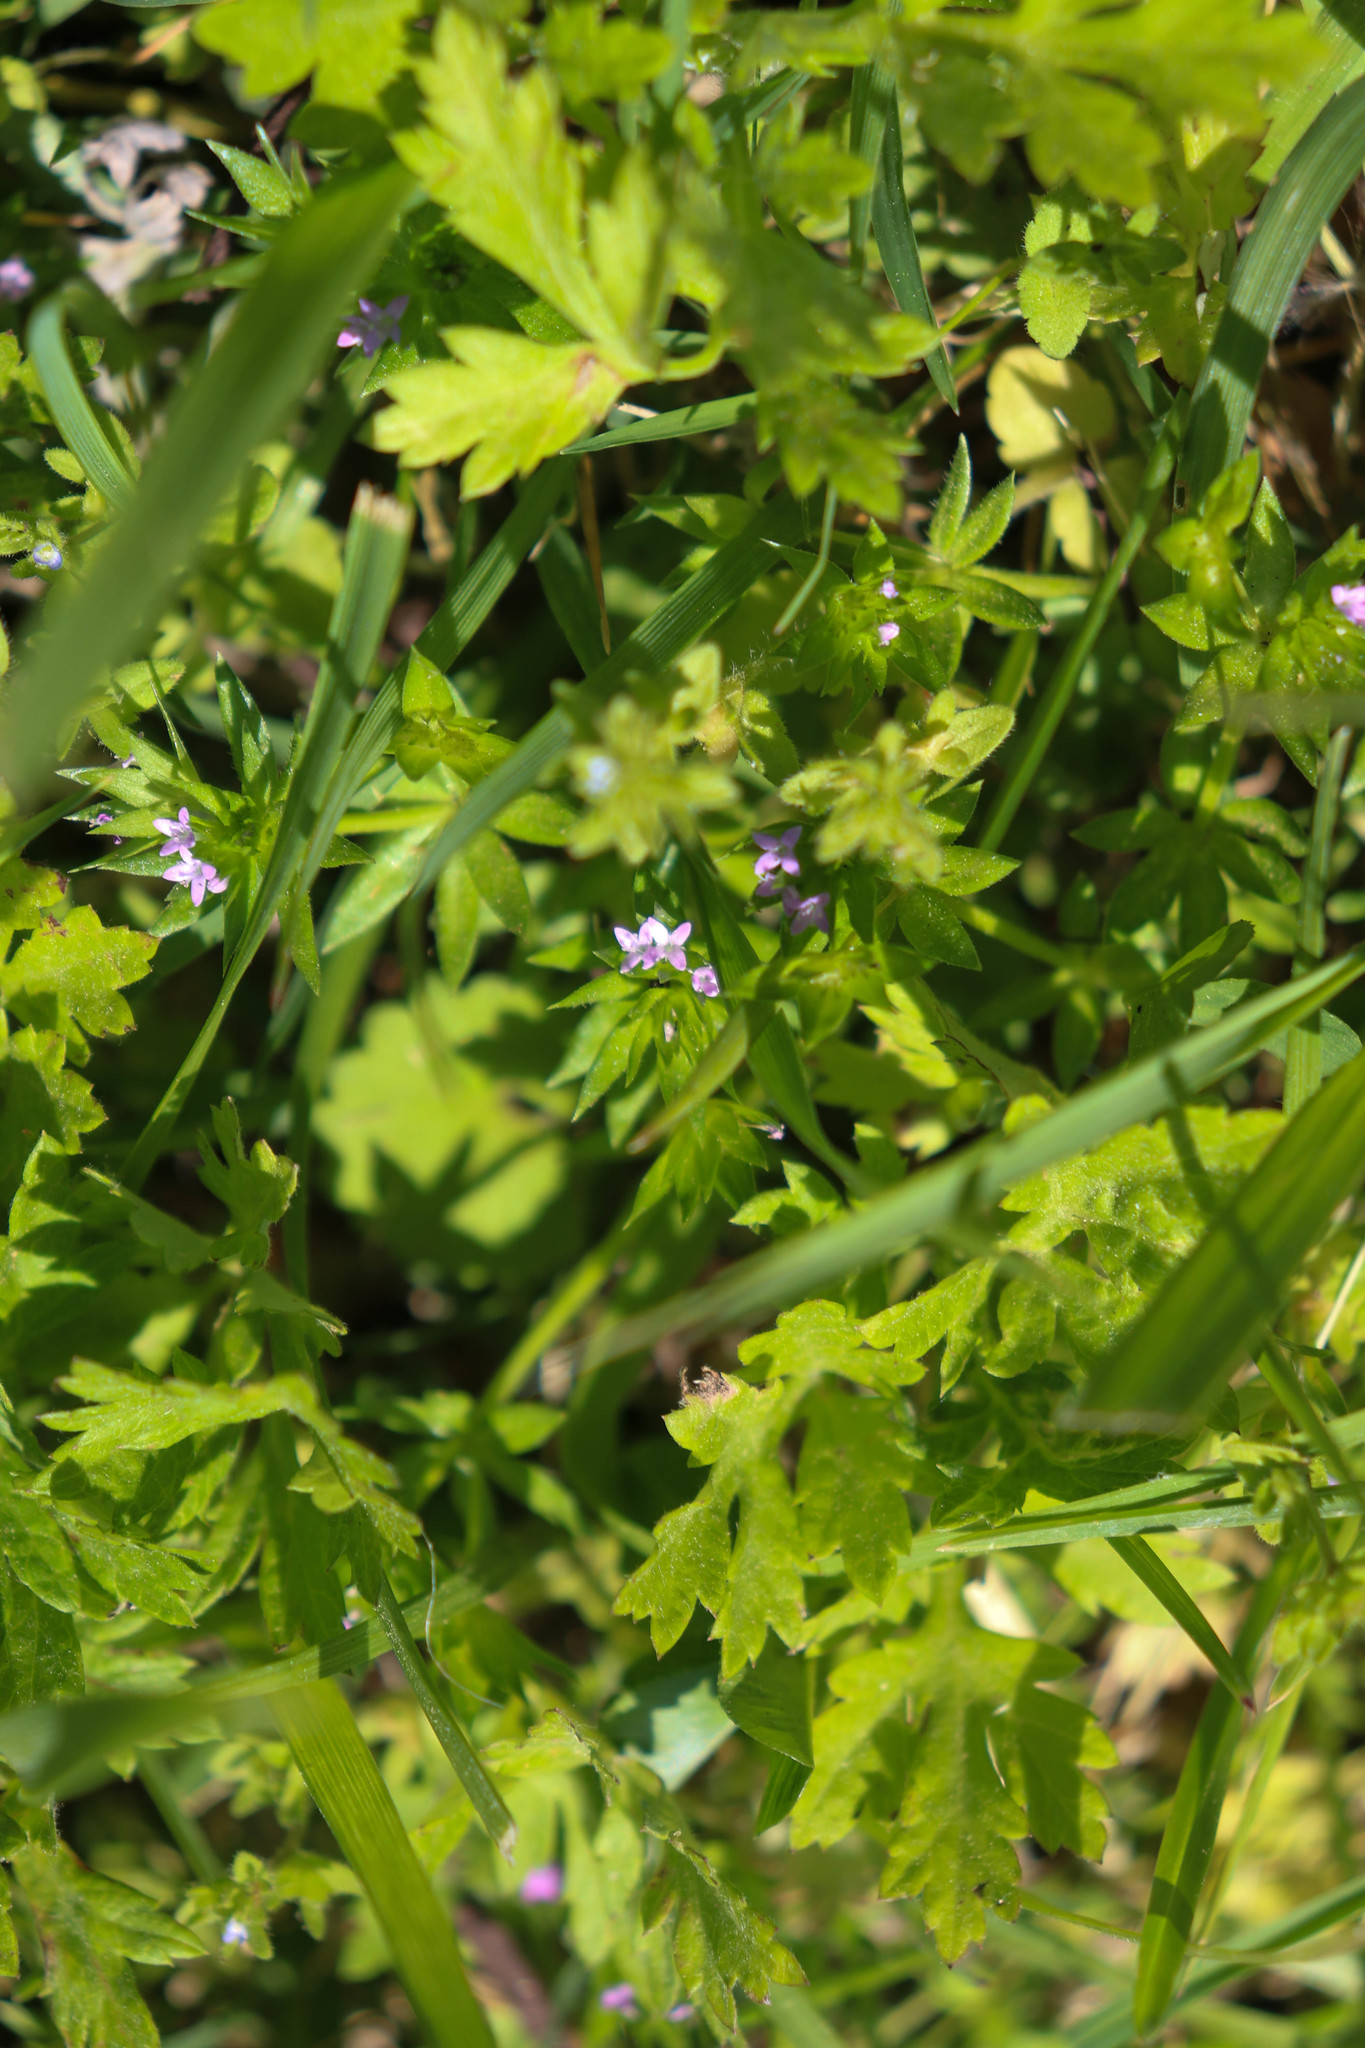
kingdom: Plantae
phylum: Tracheophyta
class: Magnoliopsida
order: Gentianales
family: Rubiaceae
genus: Sherardia
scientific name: Sherardia arvensis
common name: Field madder
